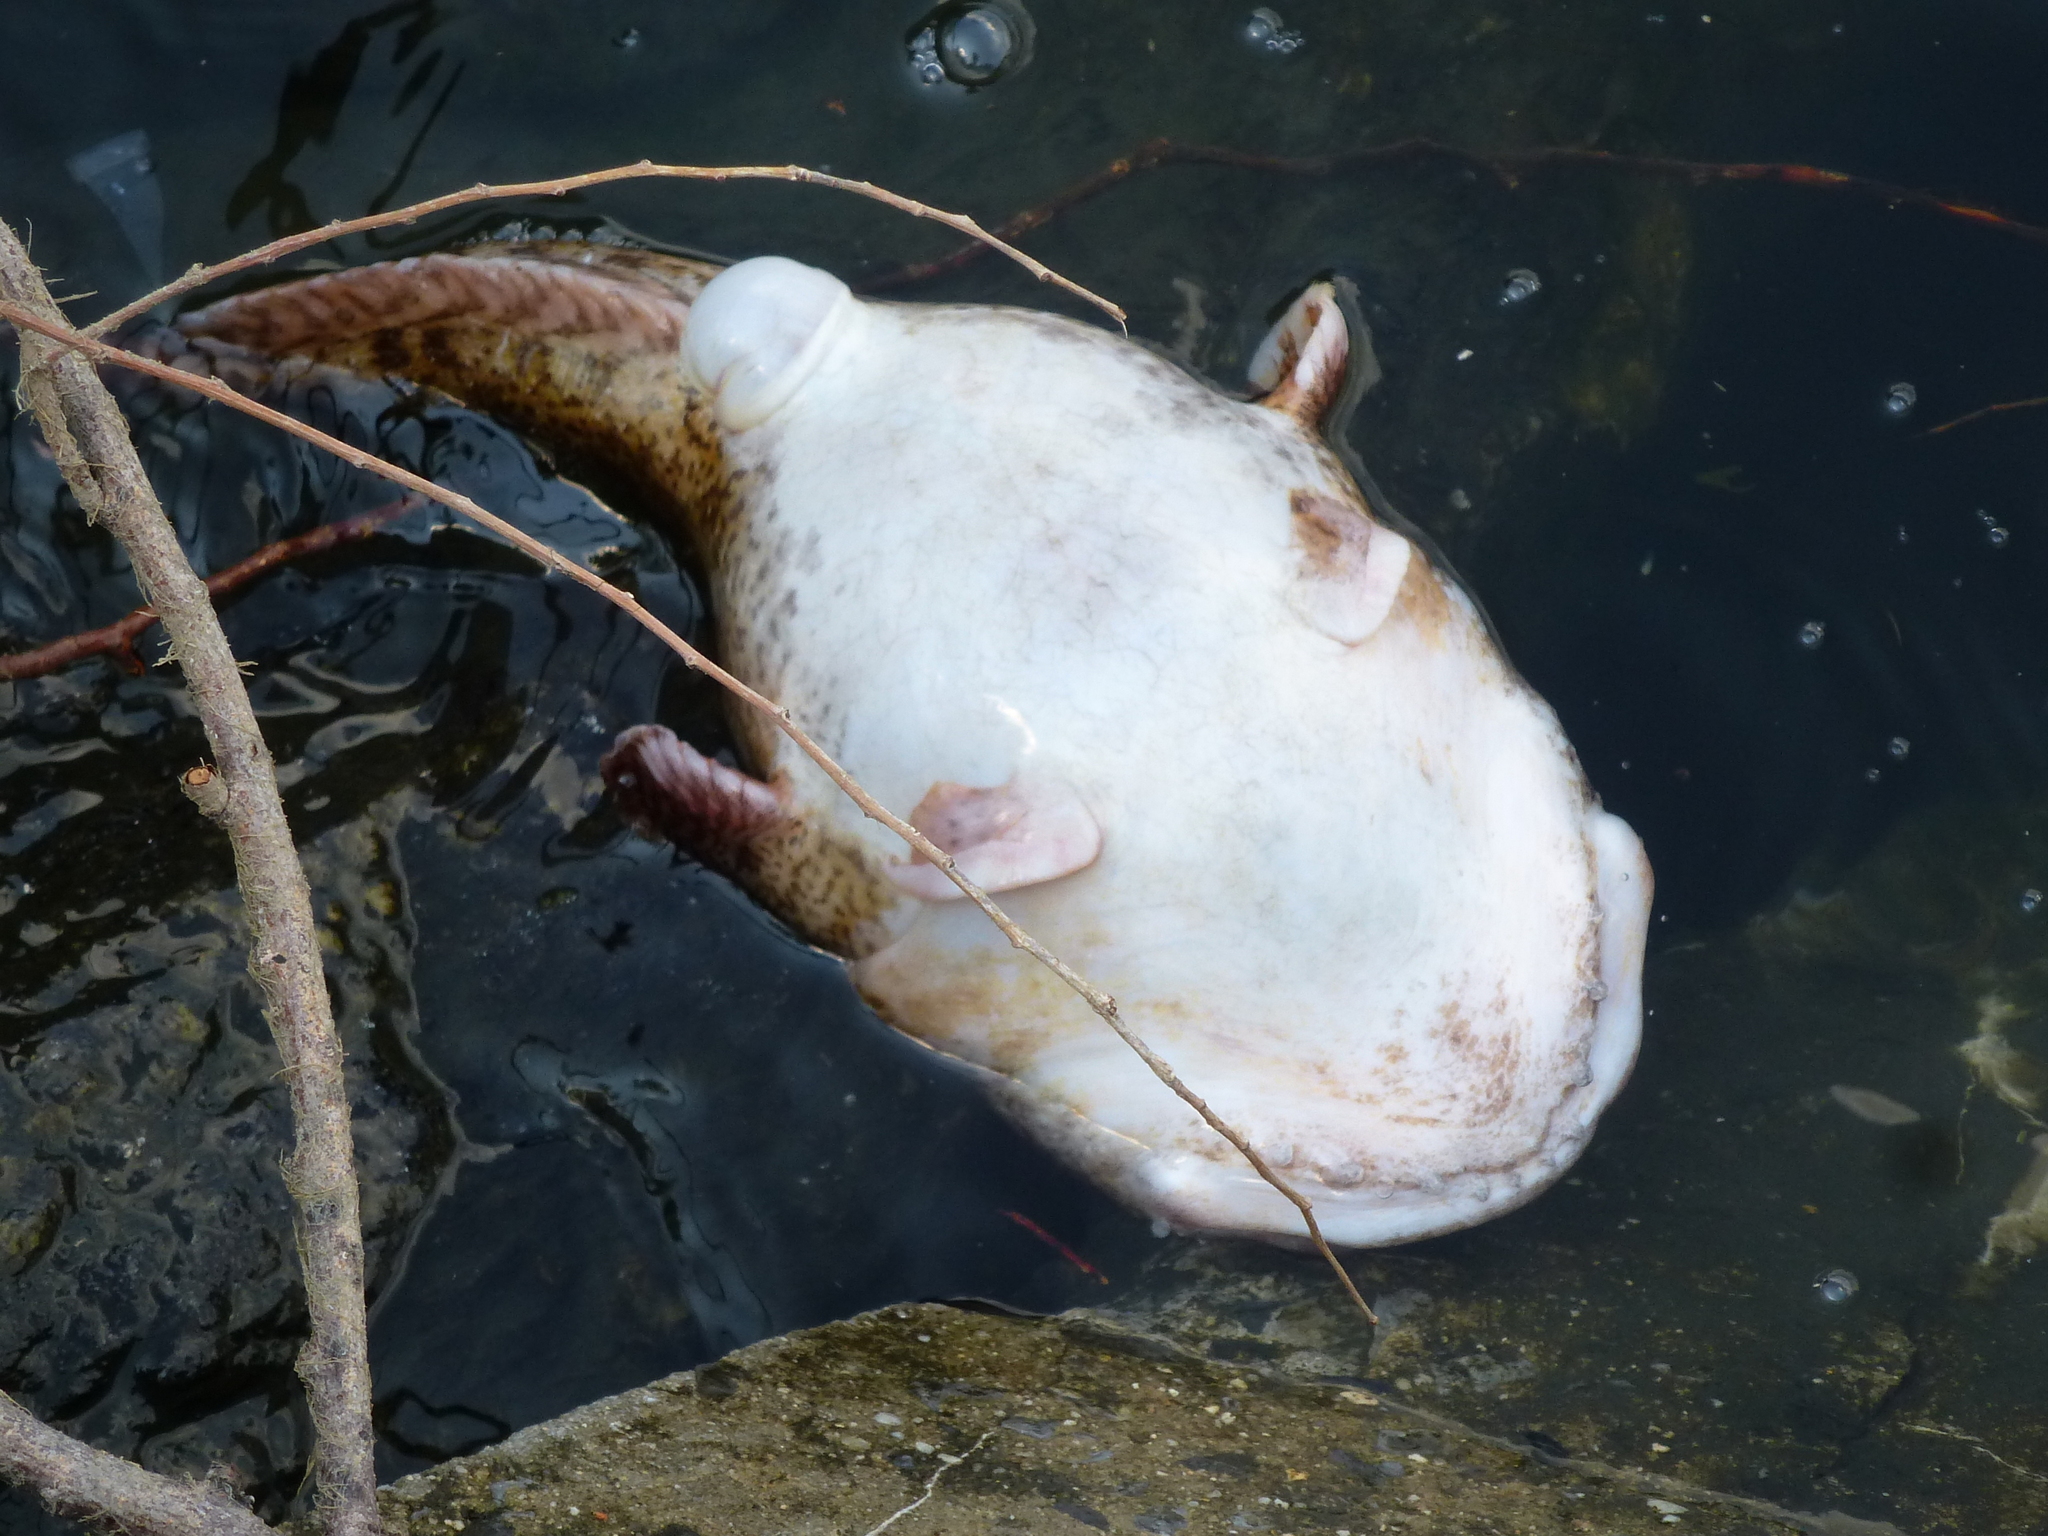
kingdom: Animalia
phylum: Chordata
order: Batrachoidiformes
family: Batrachoididae
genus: Opsanus
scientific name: Opsanus tau
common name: Oyster toadfish
